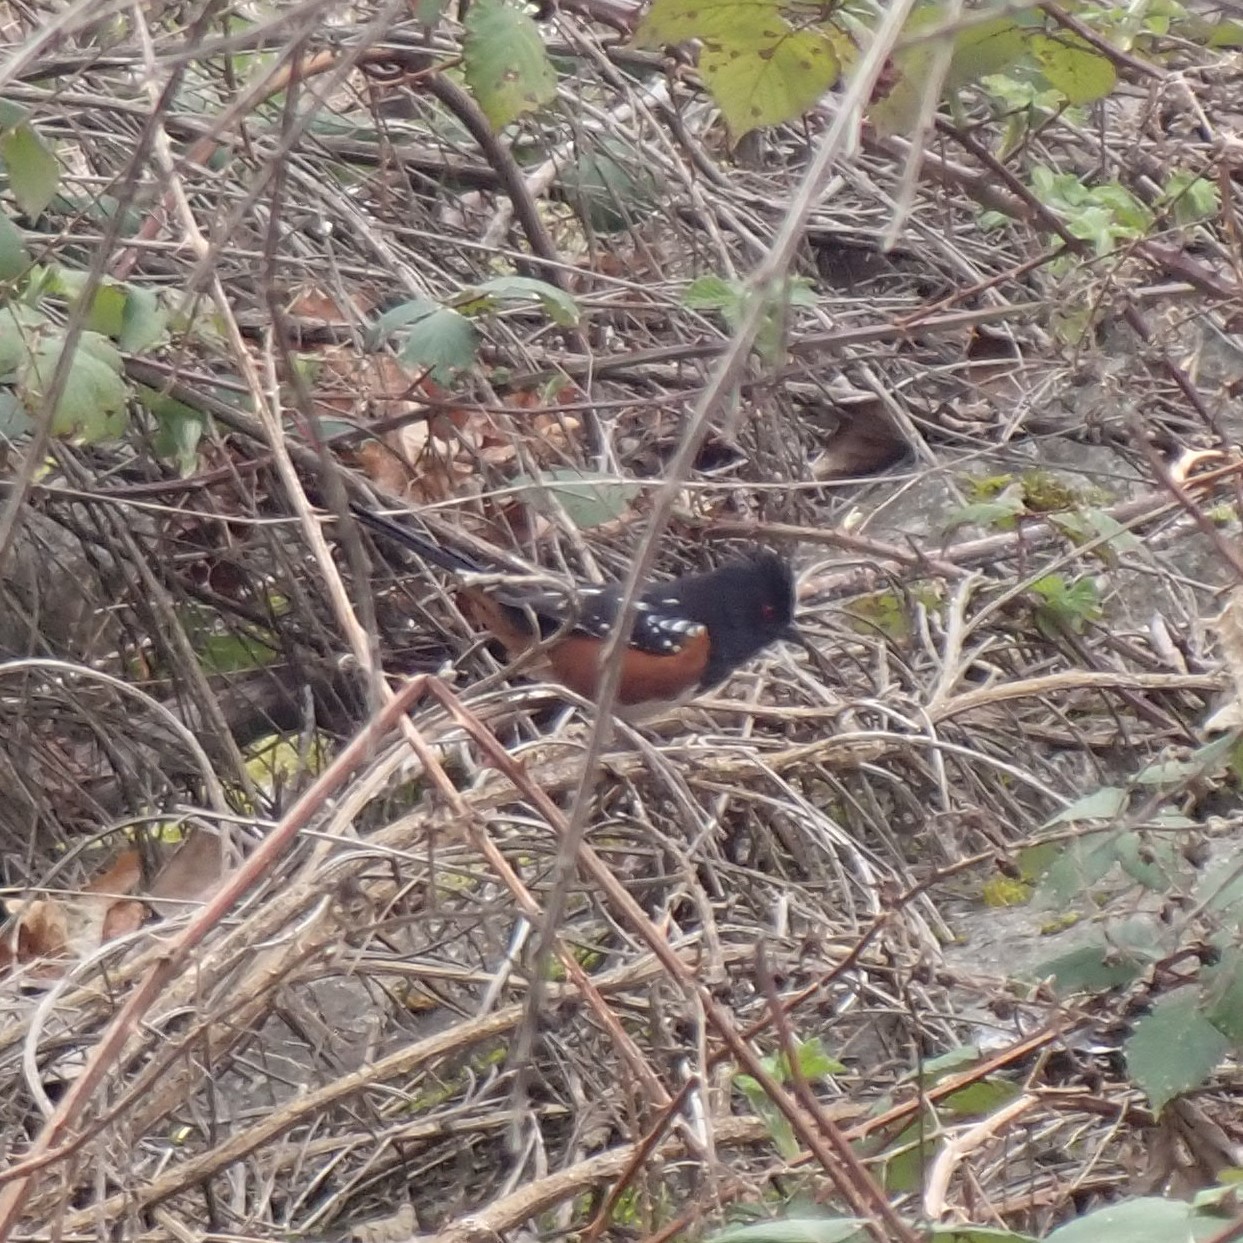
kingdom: Animalia
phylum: Chordata
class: Aves
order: Passeriformes
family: Passerellidae
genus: Pipilo
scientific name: Pipilo maculatus
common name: Spotted towhee
